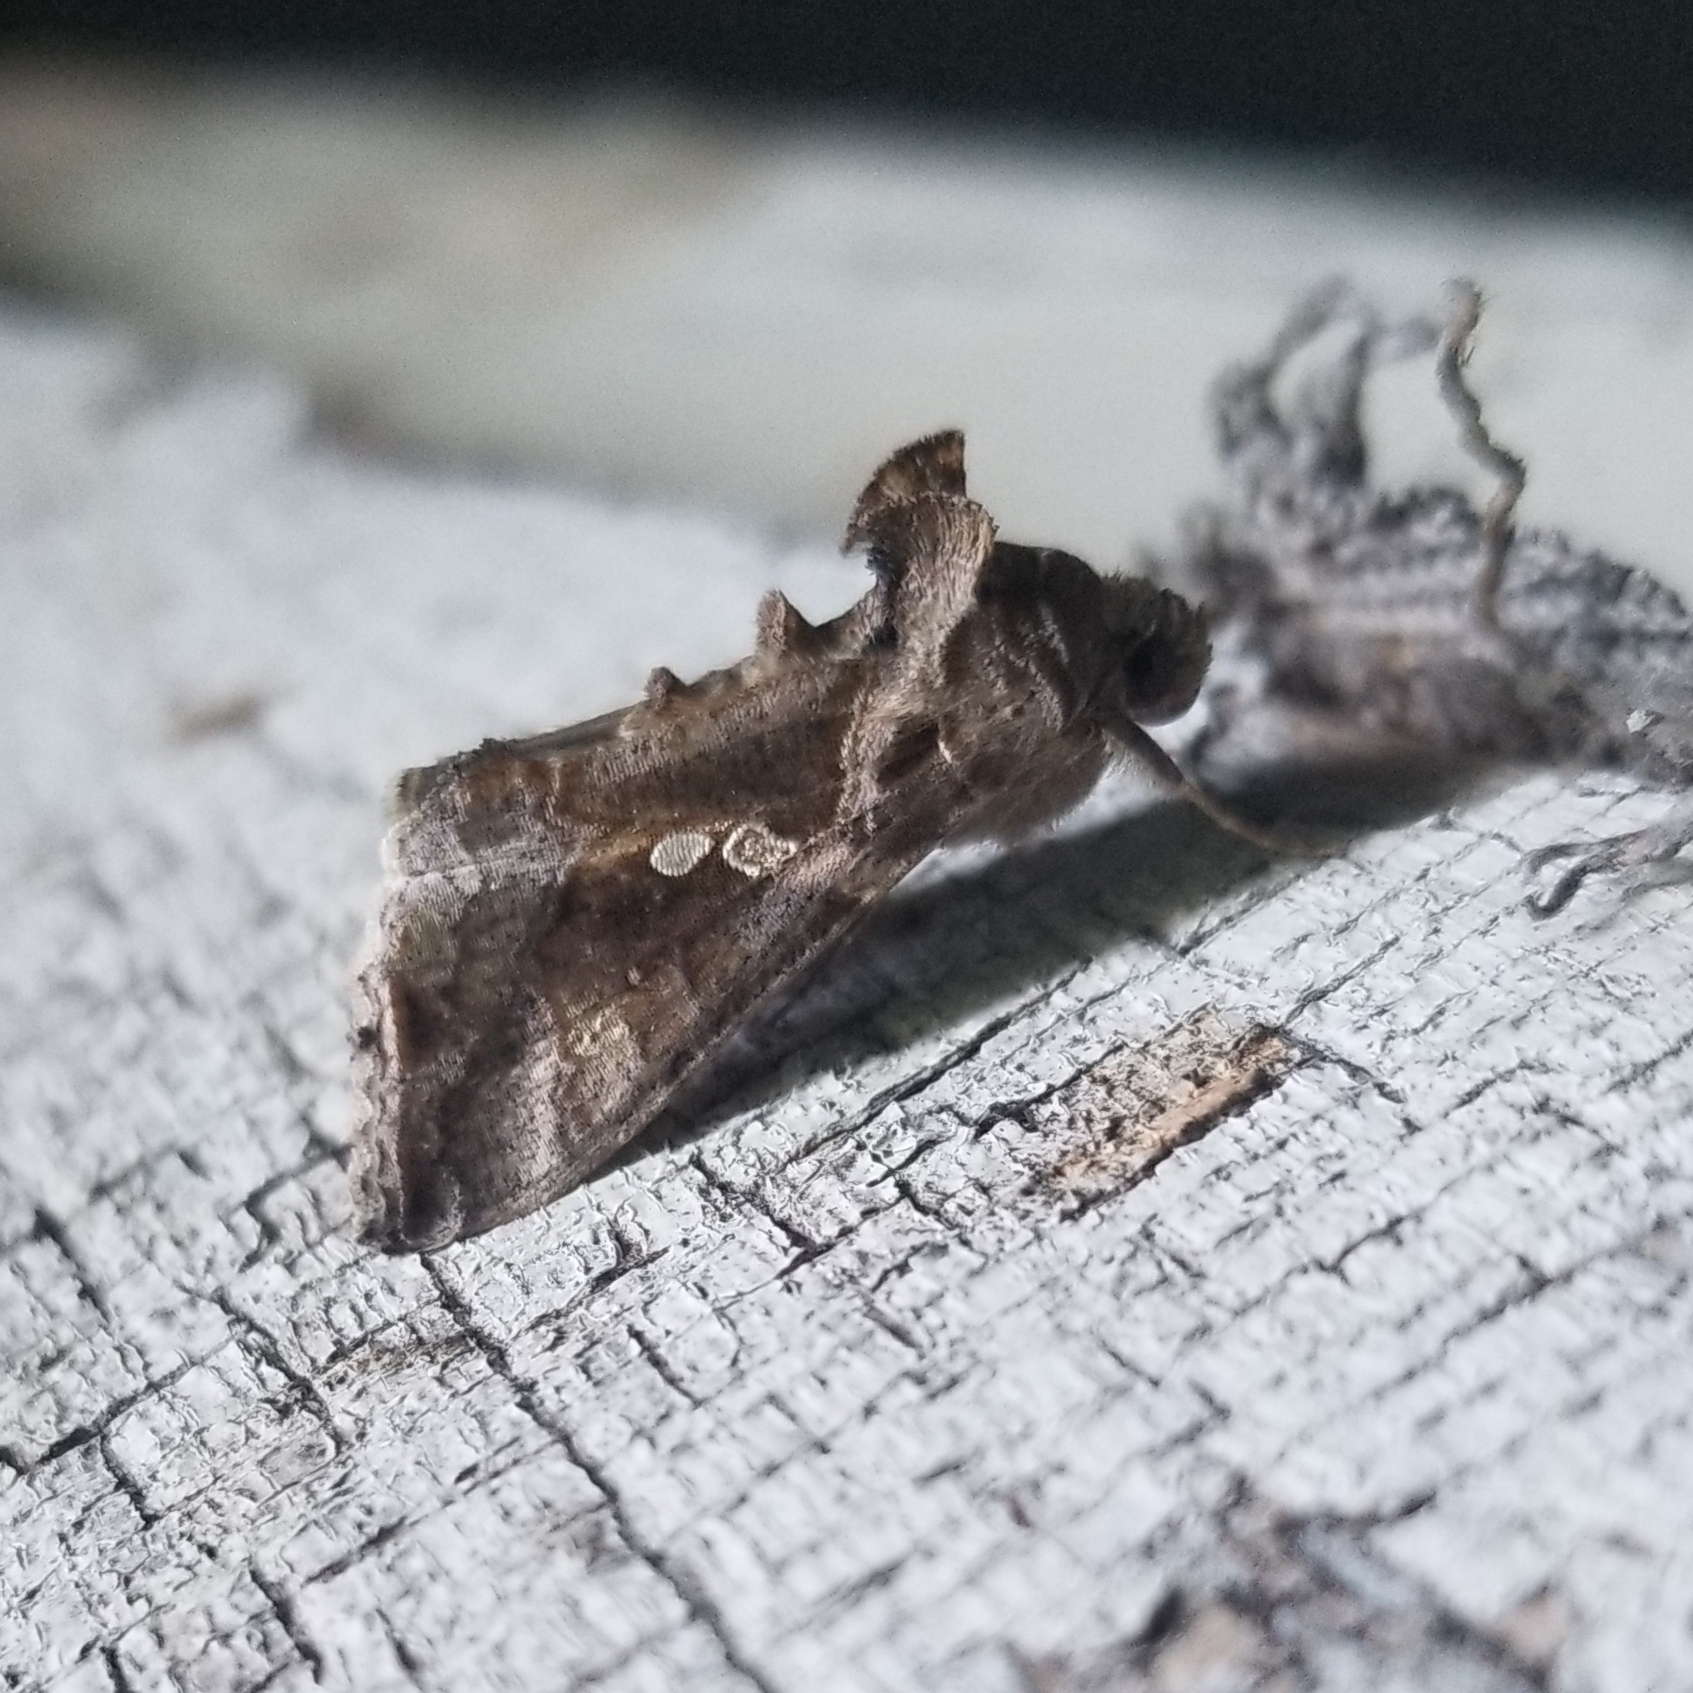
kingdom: Animalia
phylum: Arthropoda
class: Insecta
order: Lepidoptera
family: Noctuidae
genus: Chrysodeixis
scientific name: Chrysodeixis includens
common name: Cutworm moth
